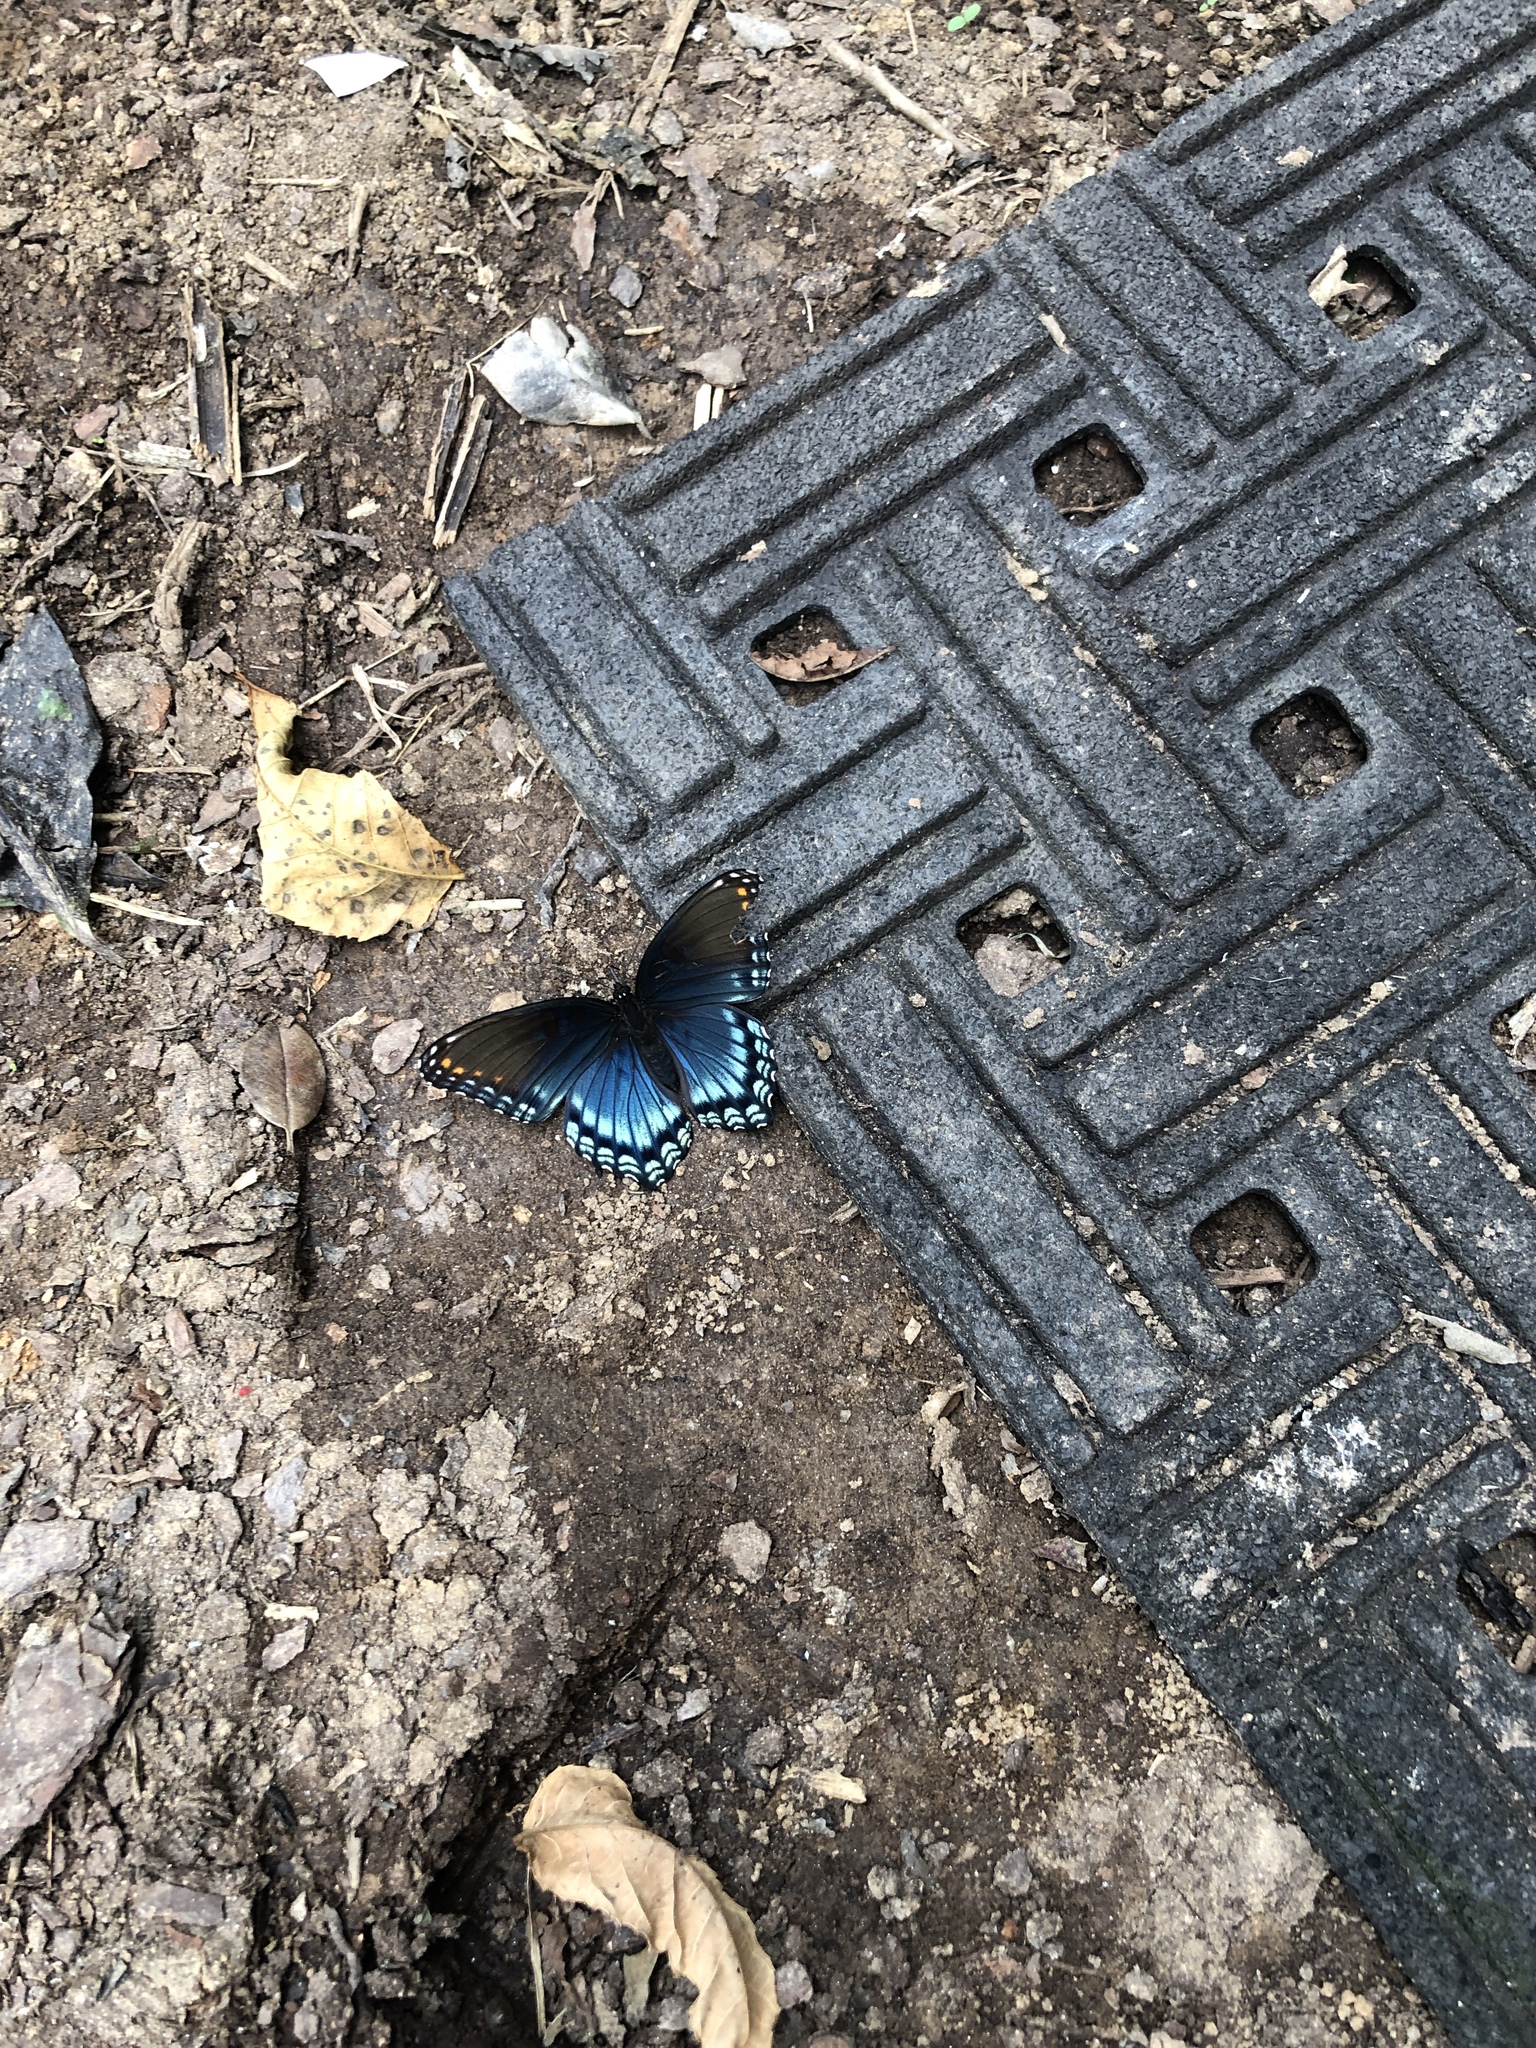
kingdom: Animalia
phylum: Arthropoda
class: Insecta
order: Lepidoptera
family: Nymphalidae
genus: Limenitis
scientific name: Limenitis arthemis
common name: Red-spotted admiral
